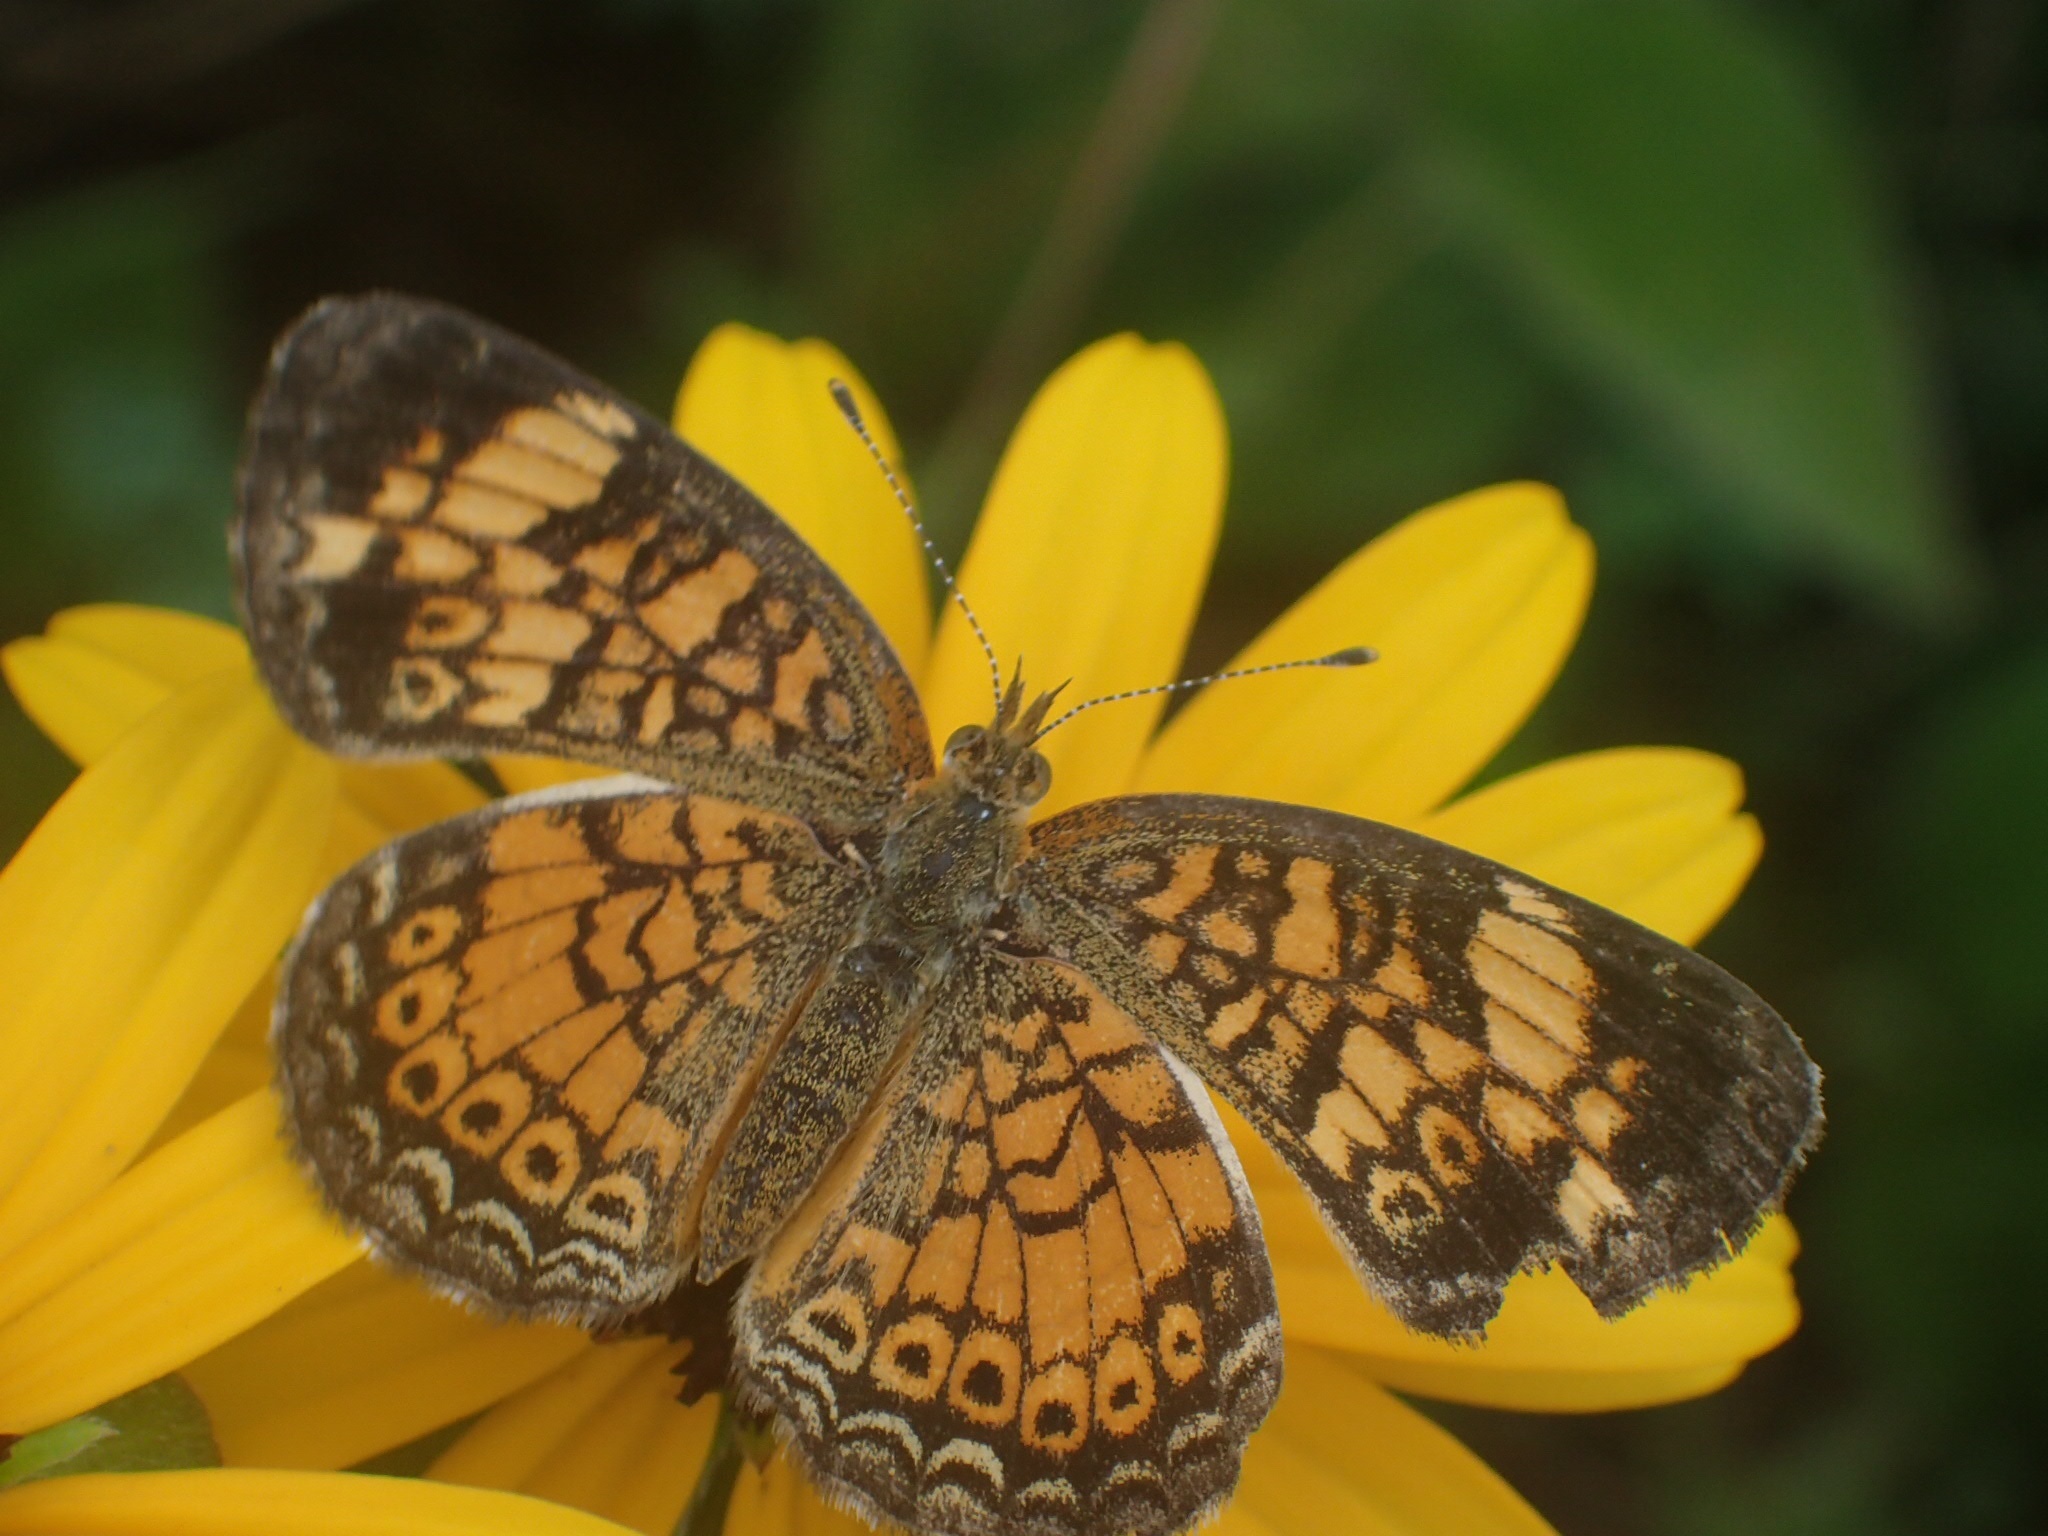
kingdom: Animalia
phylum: Arthropoda
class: Insecta
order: Lepidoptera
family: Nymphalidae
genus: Phyciodes
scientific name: Phyciodes tharos
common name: Pearl crescent
